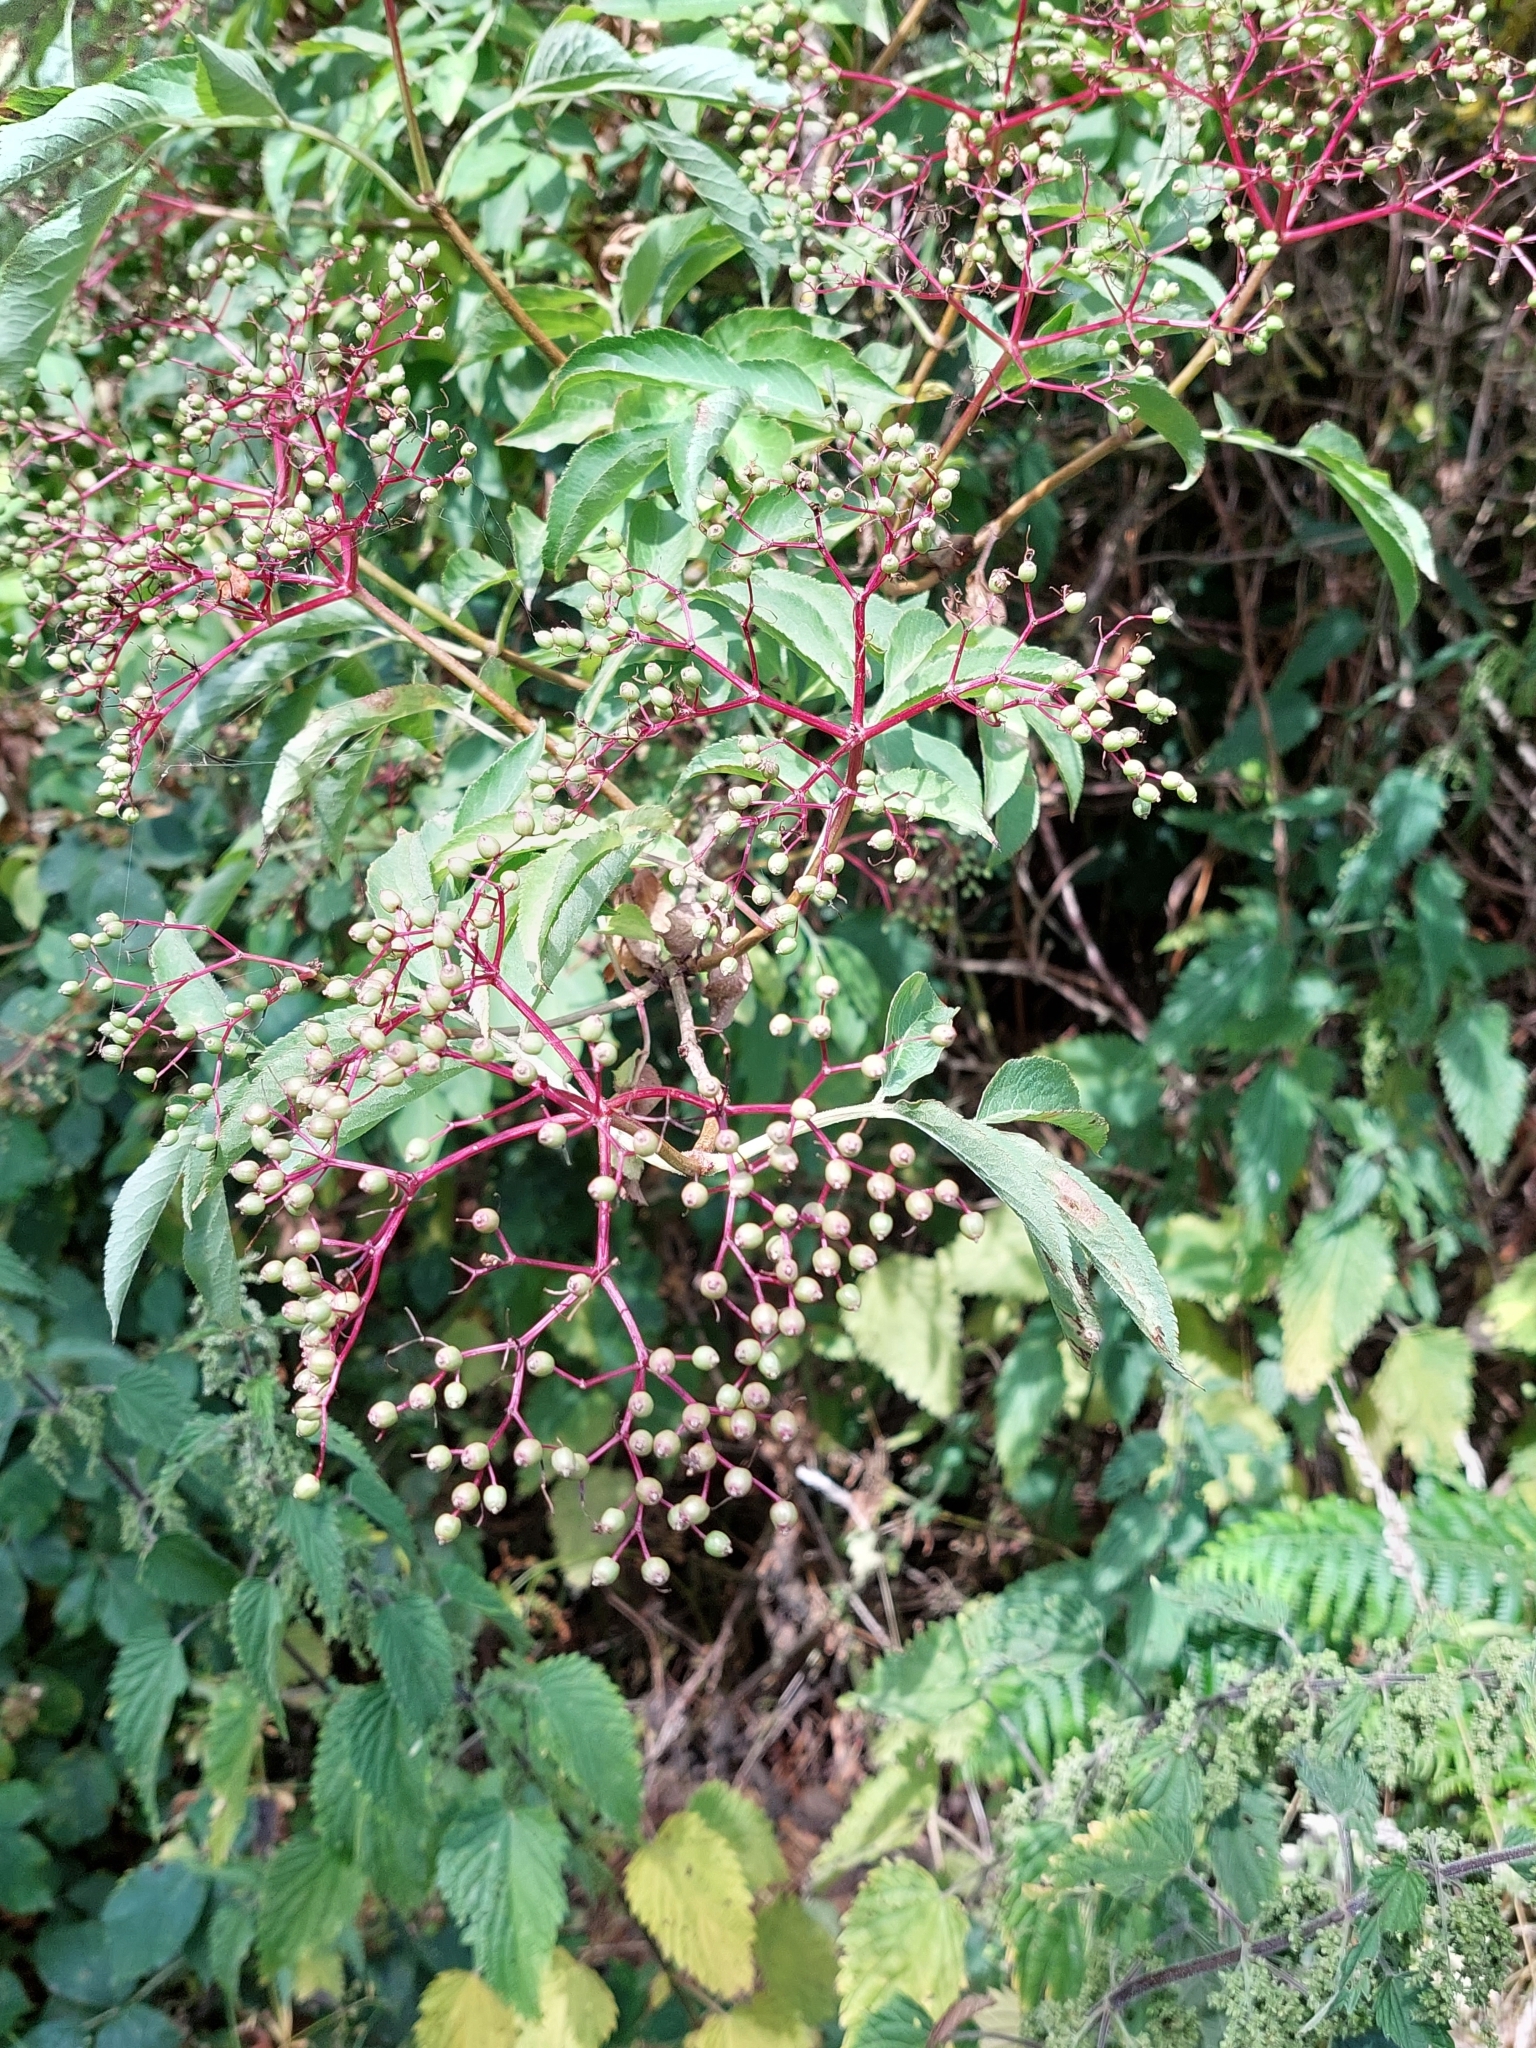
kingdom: Plantae
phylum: Tracheophyta
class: Magnoliopsida
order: Dipsacales
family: Viburnaceae
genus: Sambucus
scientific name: Sambucus nigra
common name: Elder
